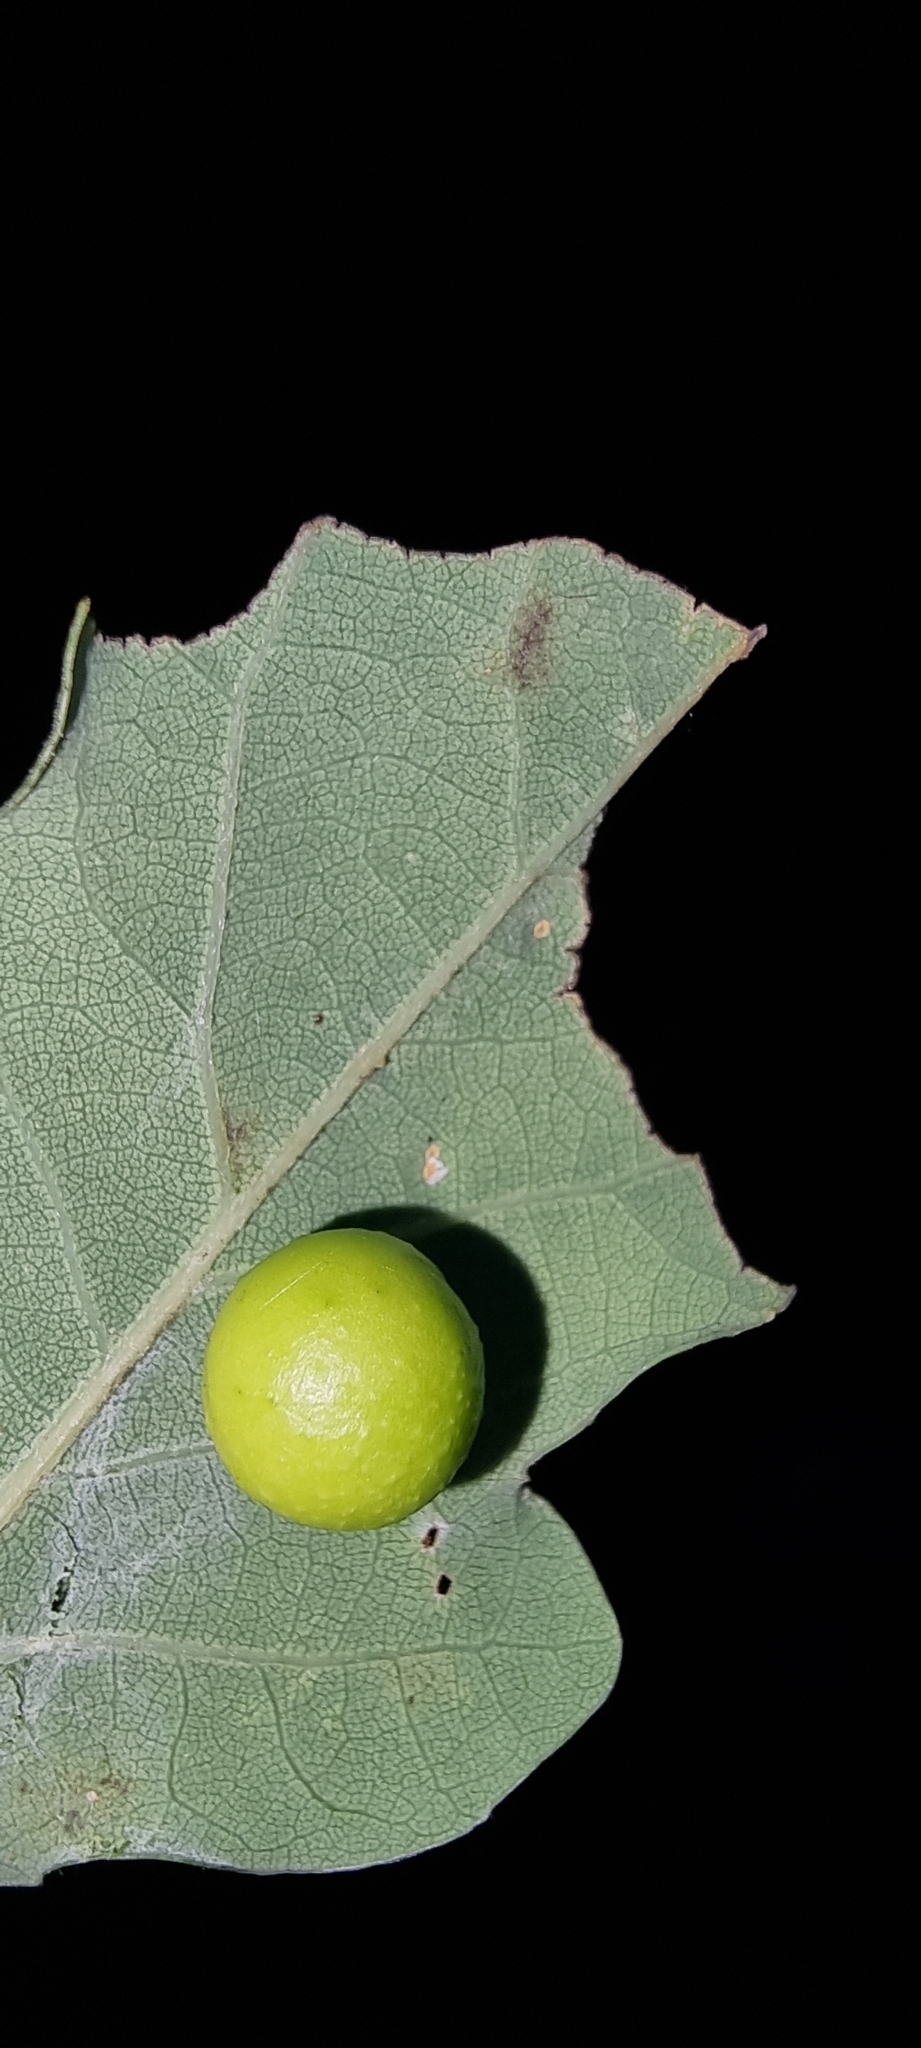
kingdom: Animalia
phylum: Arthropoda
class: Insecta
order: Hymenoptera
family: Cynipidae
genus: Cynips
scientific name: Cynips quercusfolii
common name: Cherry gall
